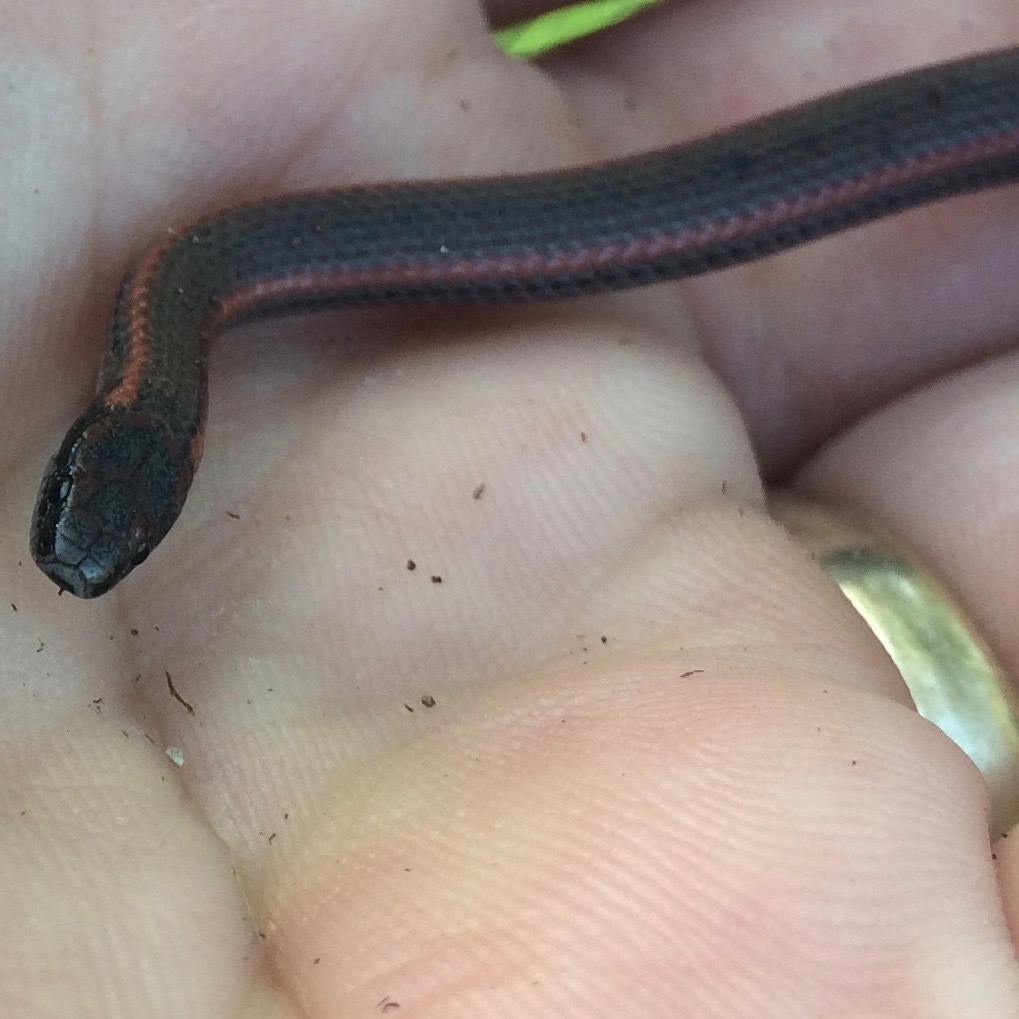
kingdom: Animalia
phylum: Chordata
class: Squamata
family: Colubridae
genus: Contia
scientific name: Contia tenuis
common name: Sharptail snake
